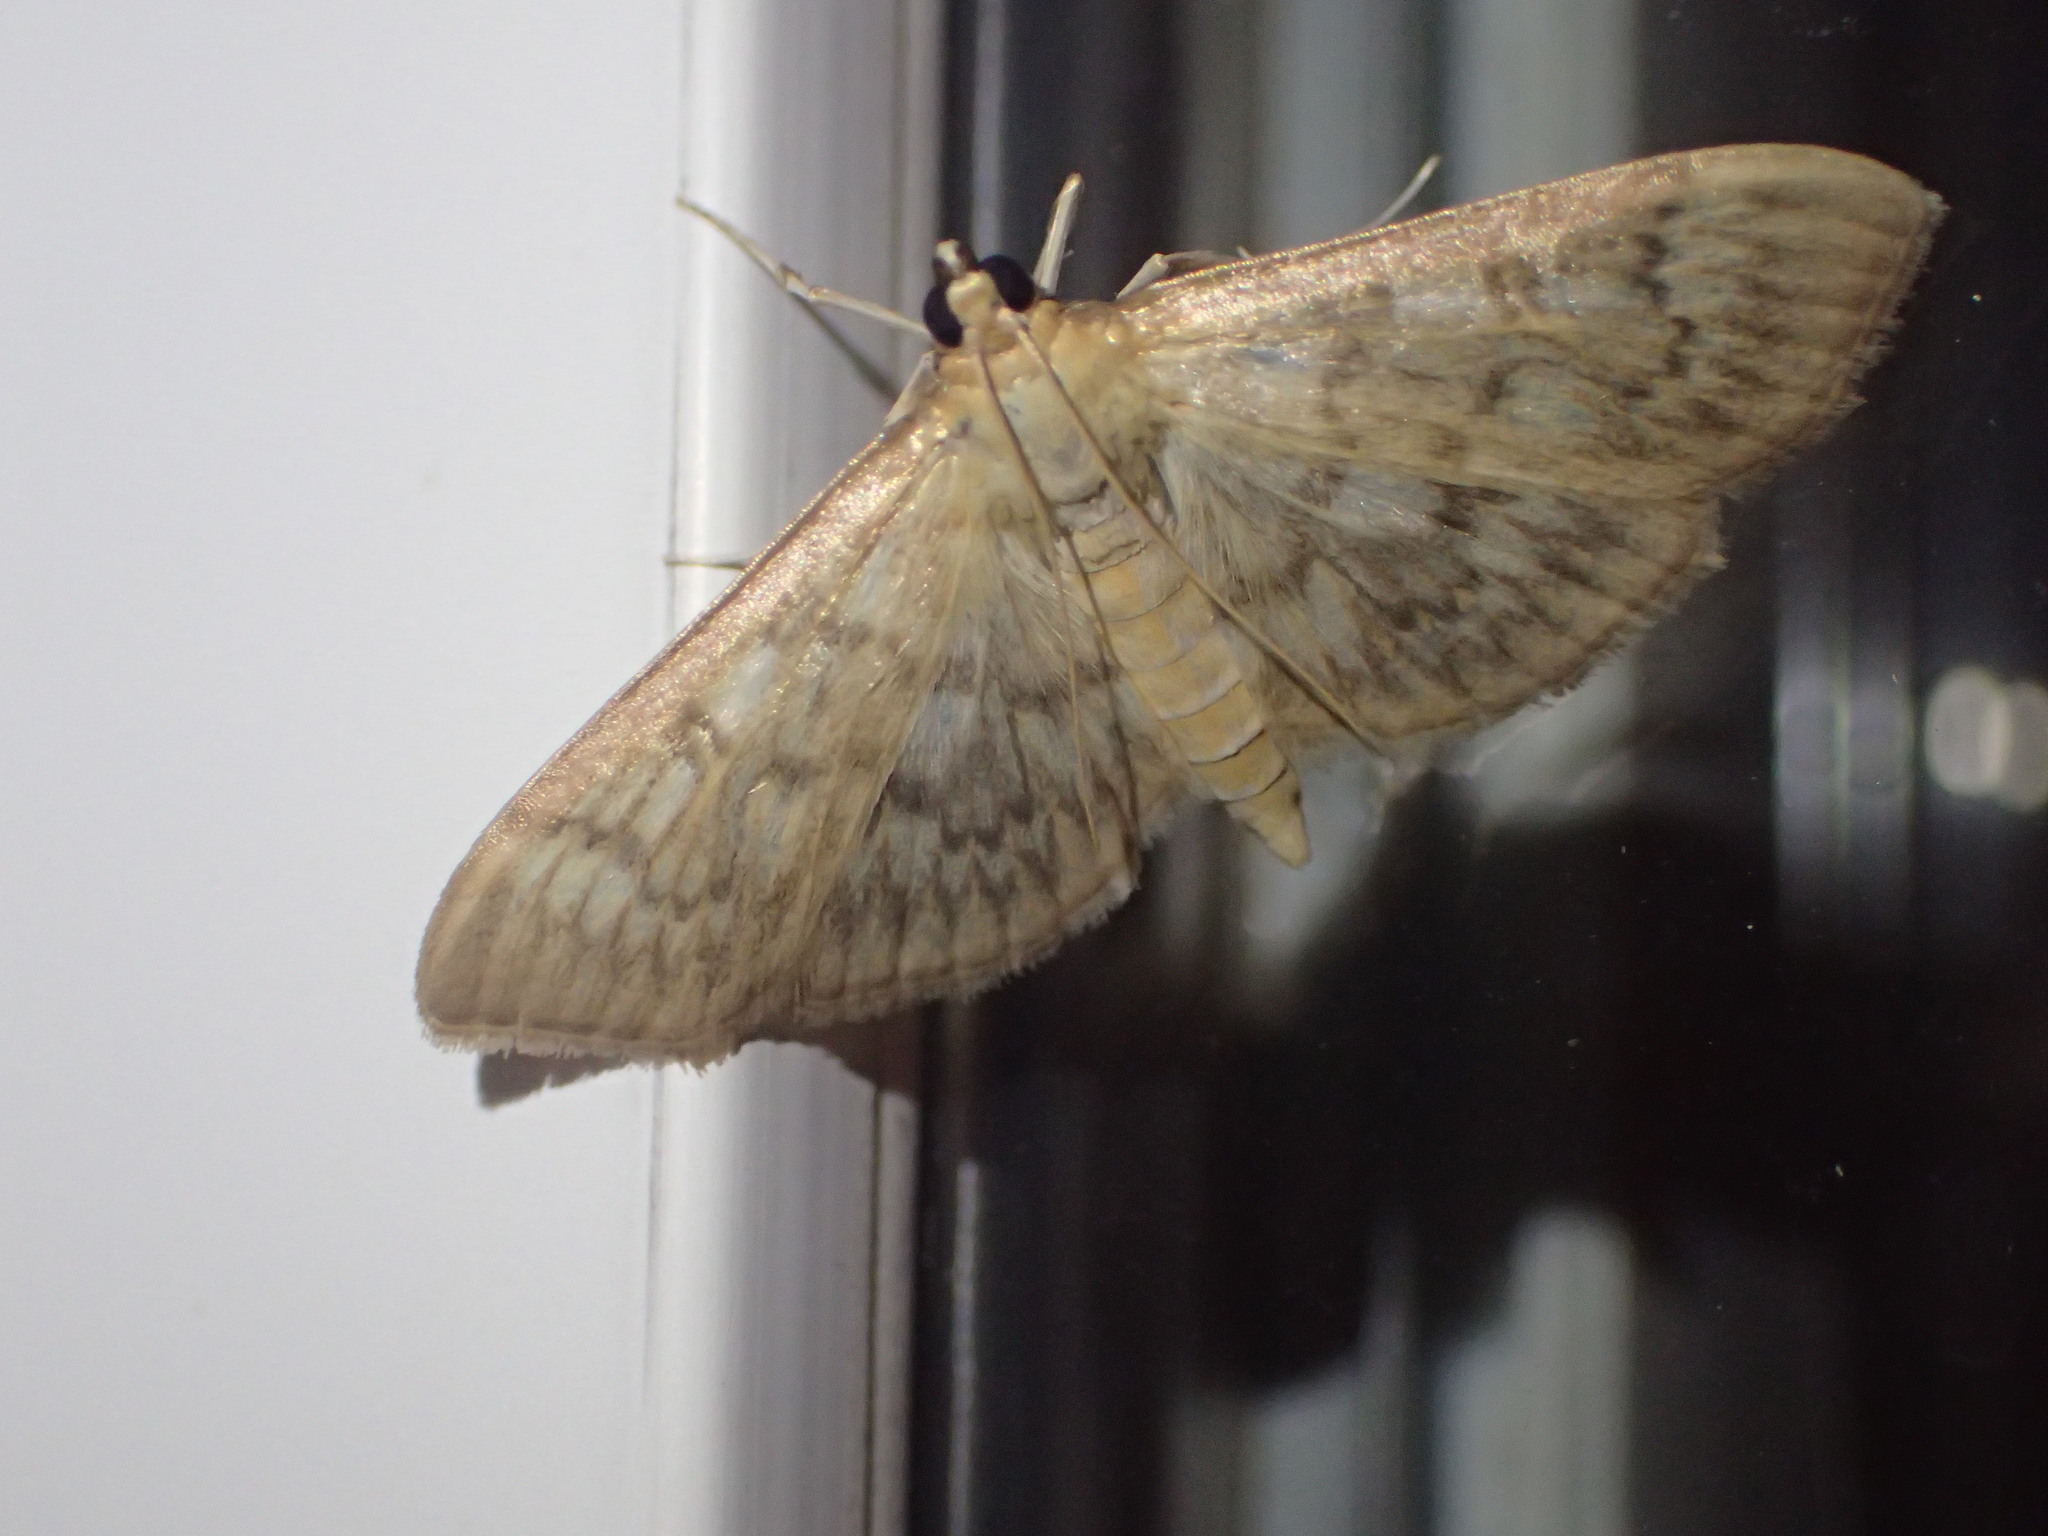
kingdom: Animalia
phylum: Arthropoda
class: Insecta
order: Lepidoptera
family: Crambidae
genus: Herpetogramma
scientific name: Herpetogramma pertextalis
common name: Bold-feathered grass moth
